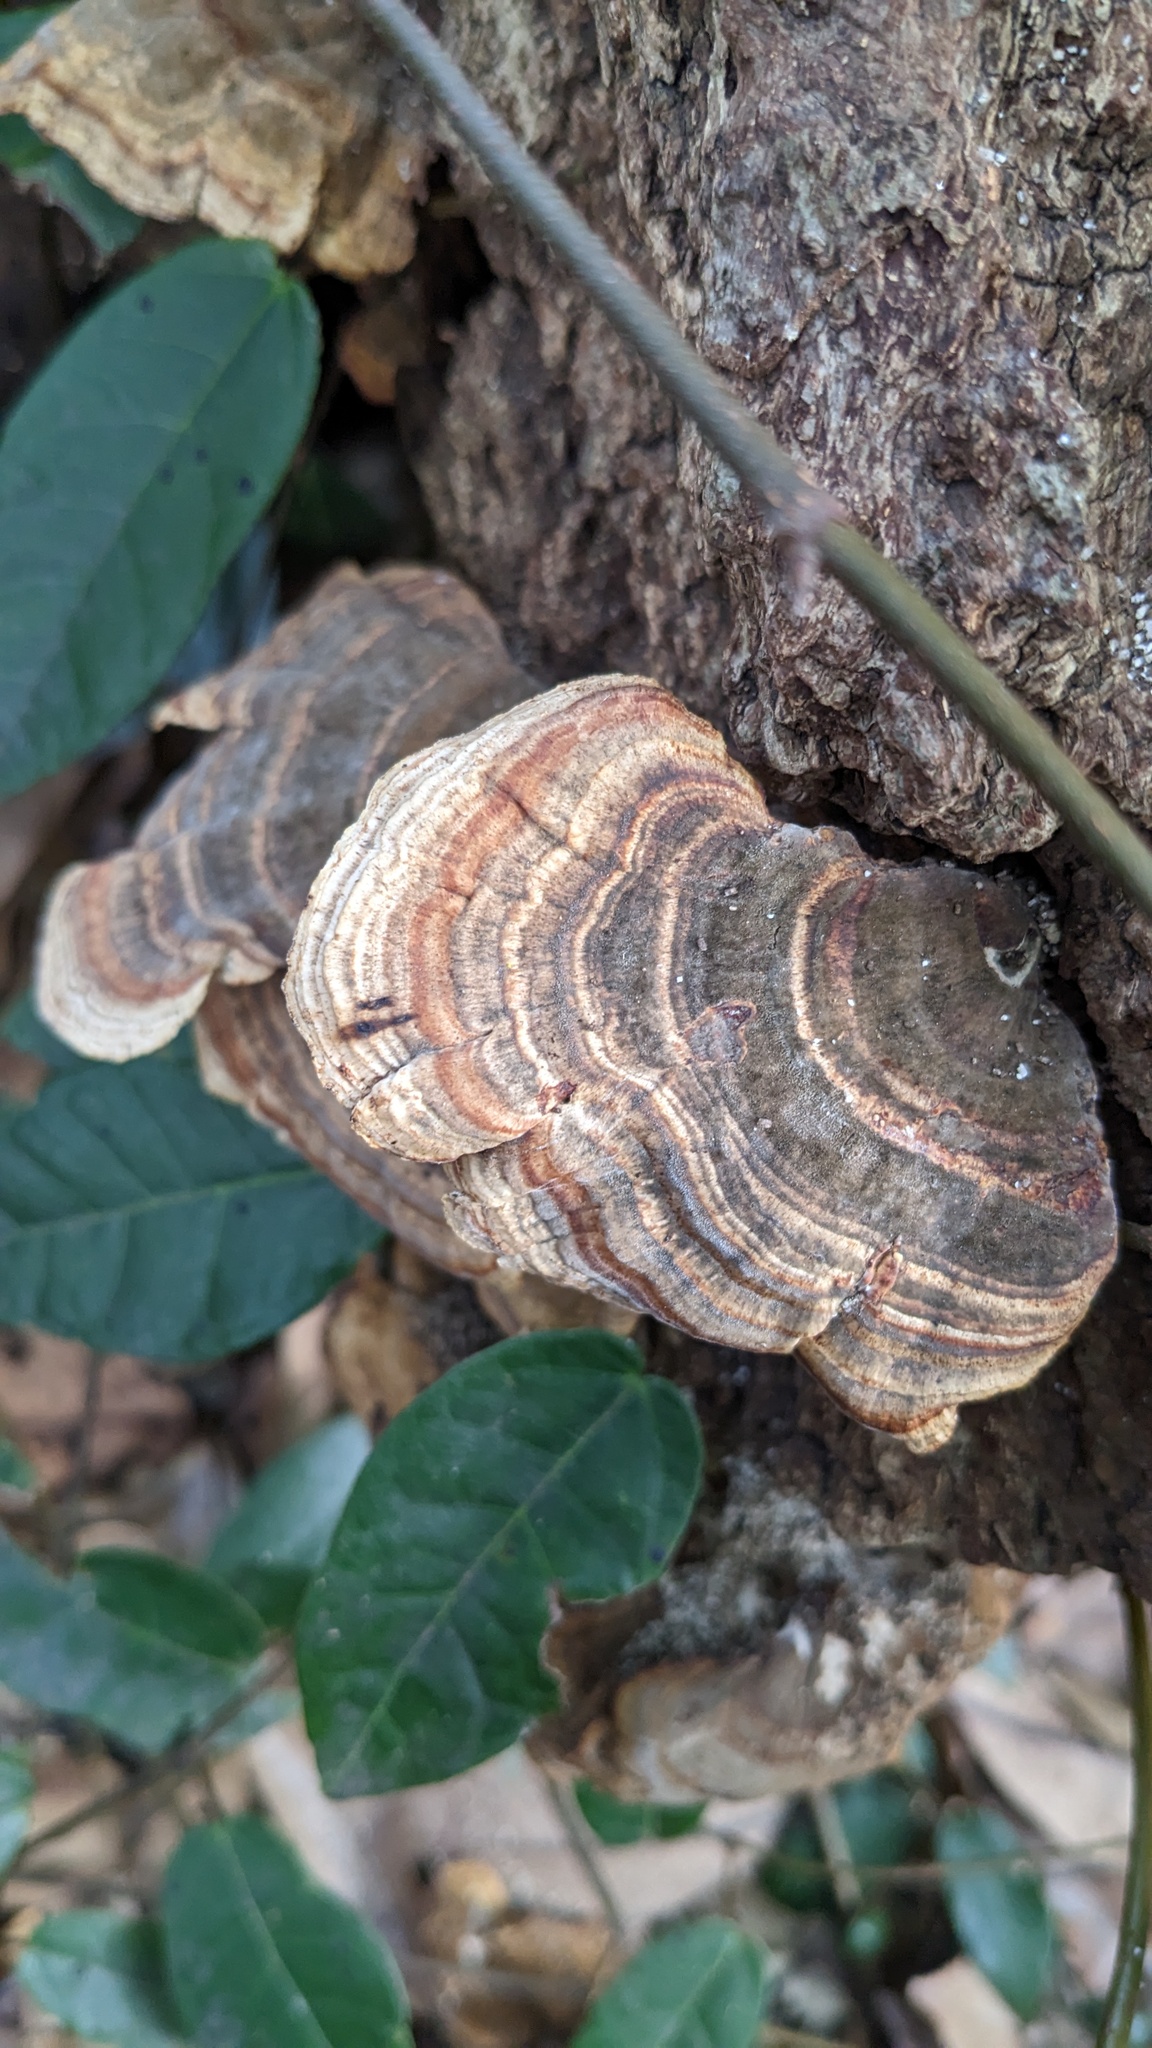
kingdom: Fungi
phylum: Basidiomycota
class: Agaricomycetes
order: Polyporales
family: Polyporaceae
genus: Microporus
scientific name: Microporus affinis
